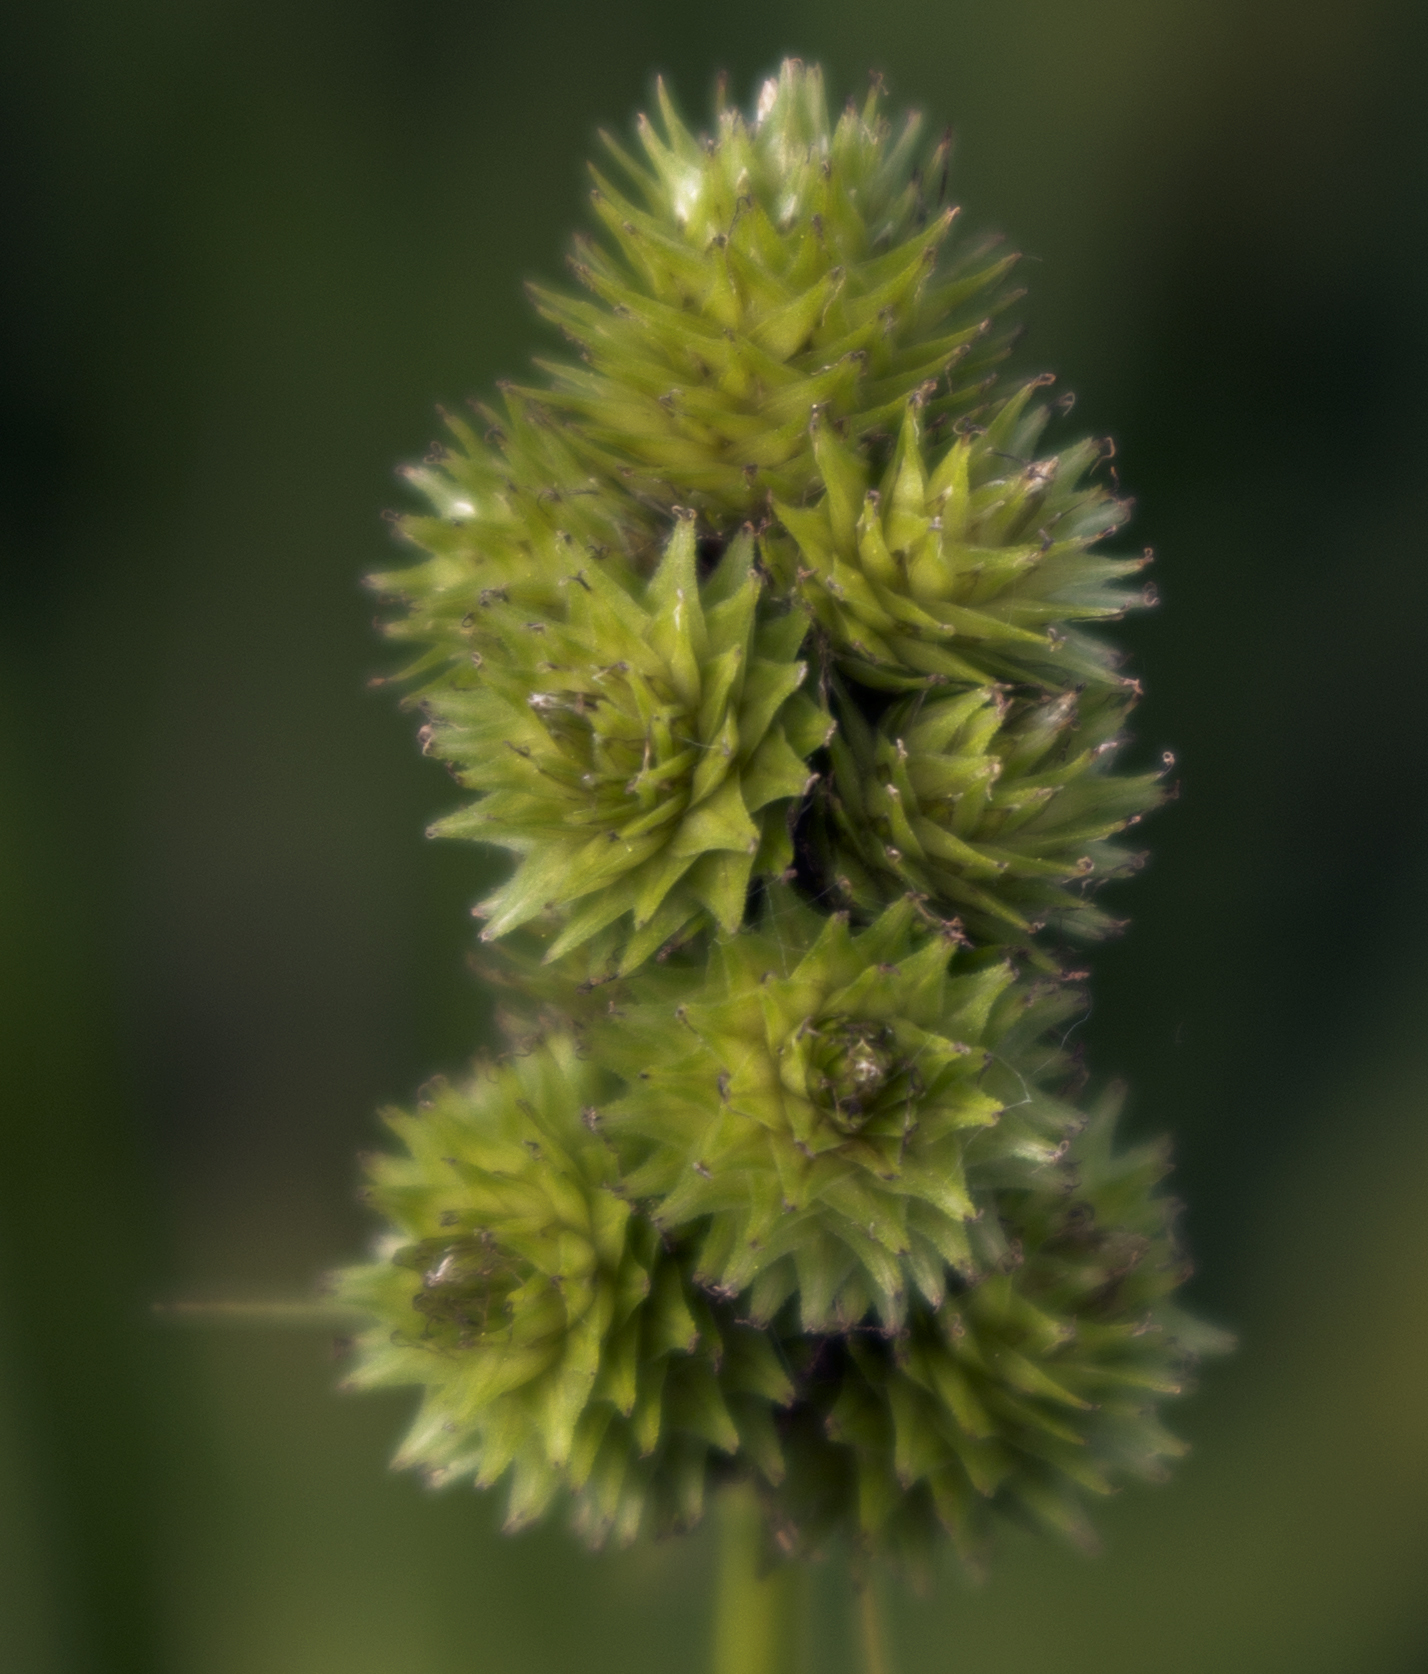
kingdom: Plantae
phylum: Tracheophyta
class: Liliopsida
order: Poales
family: Cyperaceae
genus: Carex
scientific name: Carex cristatella
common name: Crested oval sedge
